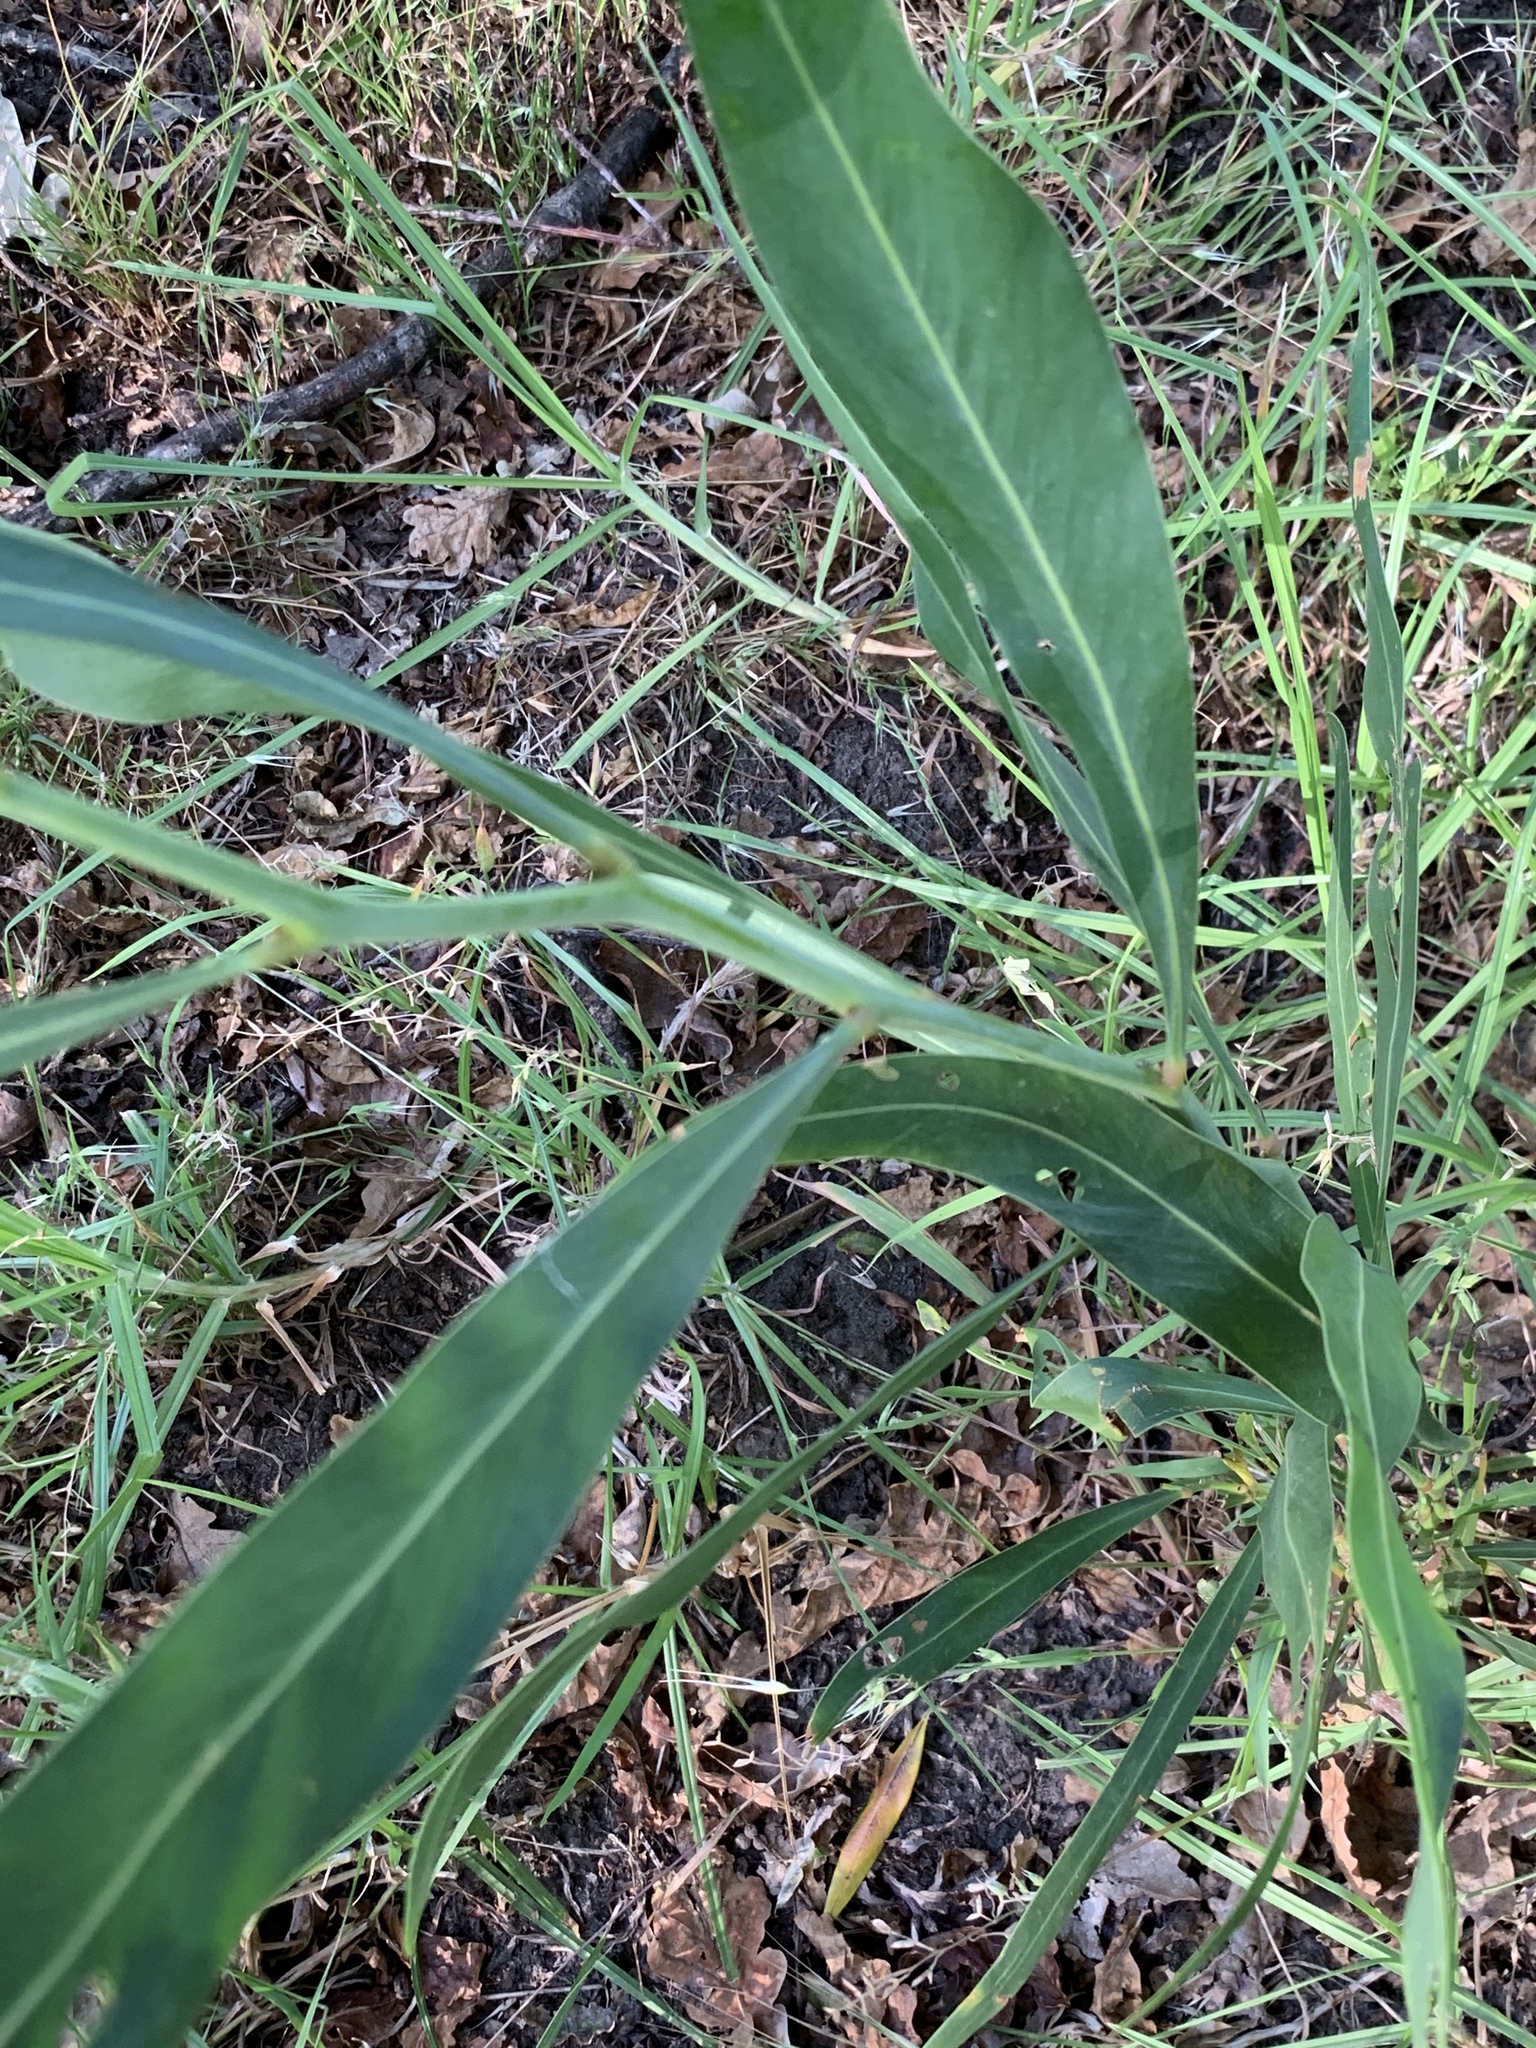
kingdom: Plantae
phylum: Tracheophyta
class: Magnoliopsida
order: Fabales
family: Fabaceae
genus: Acacia
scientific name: Acacia saligna
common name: Orange wattle
